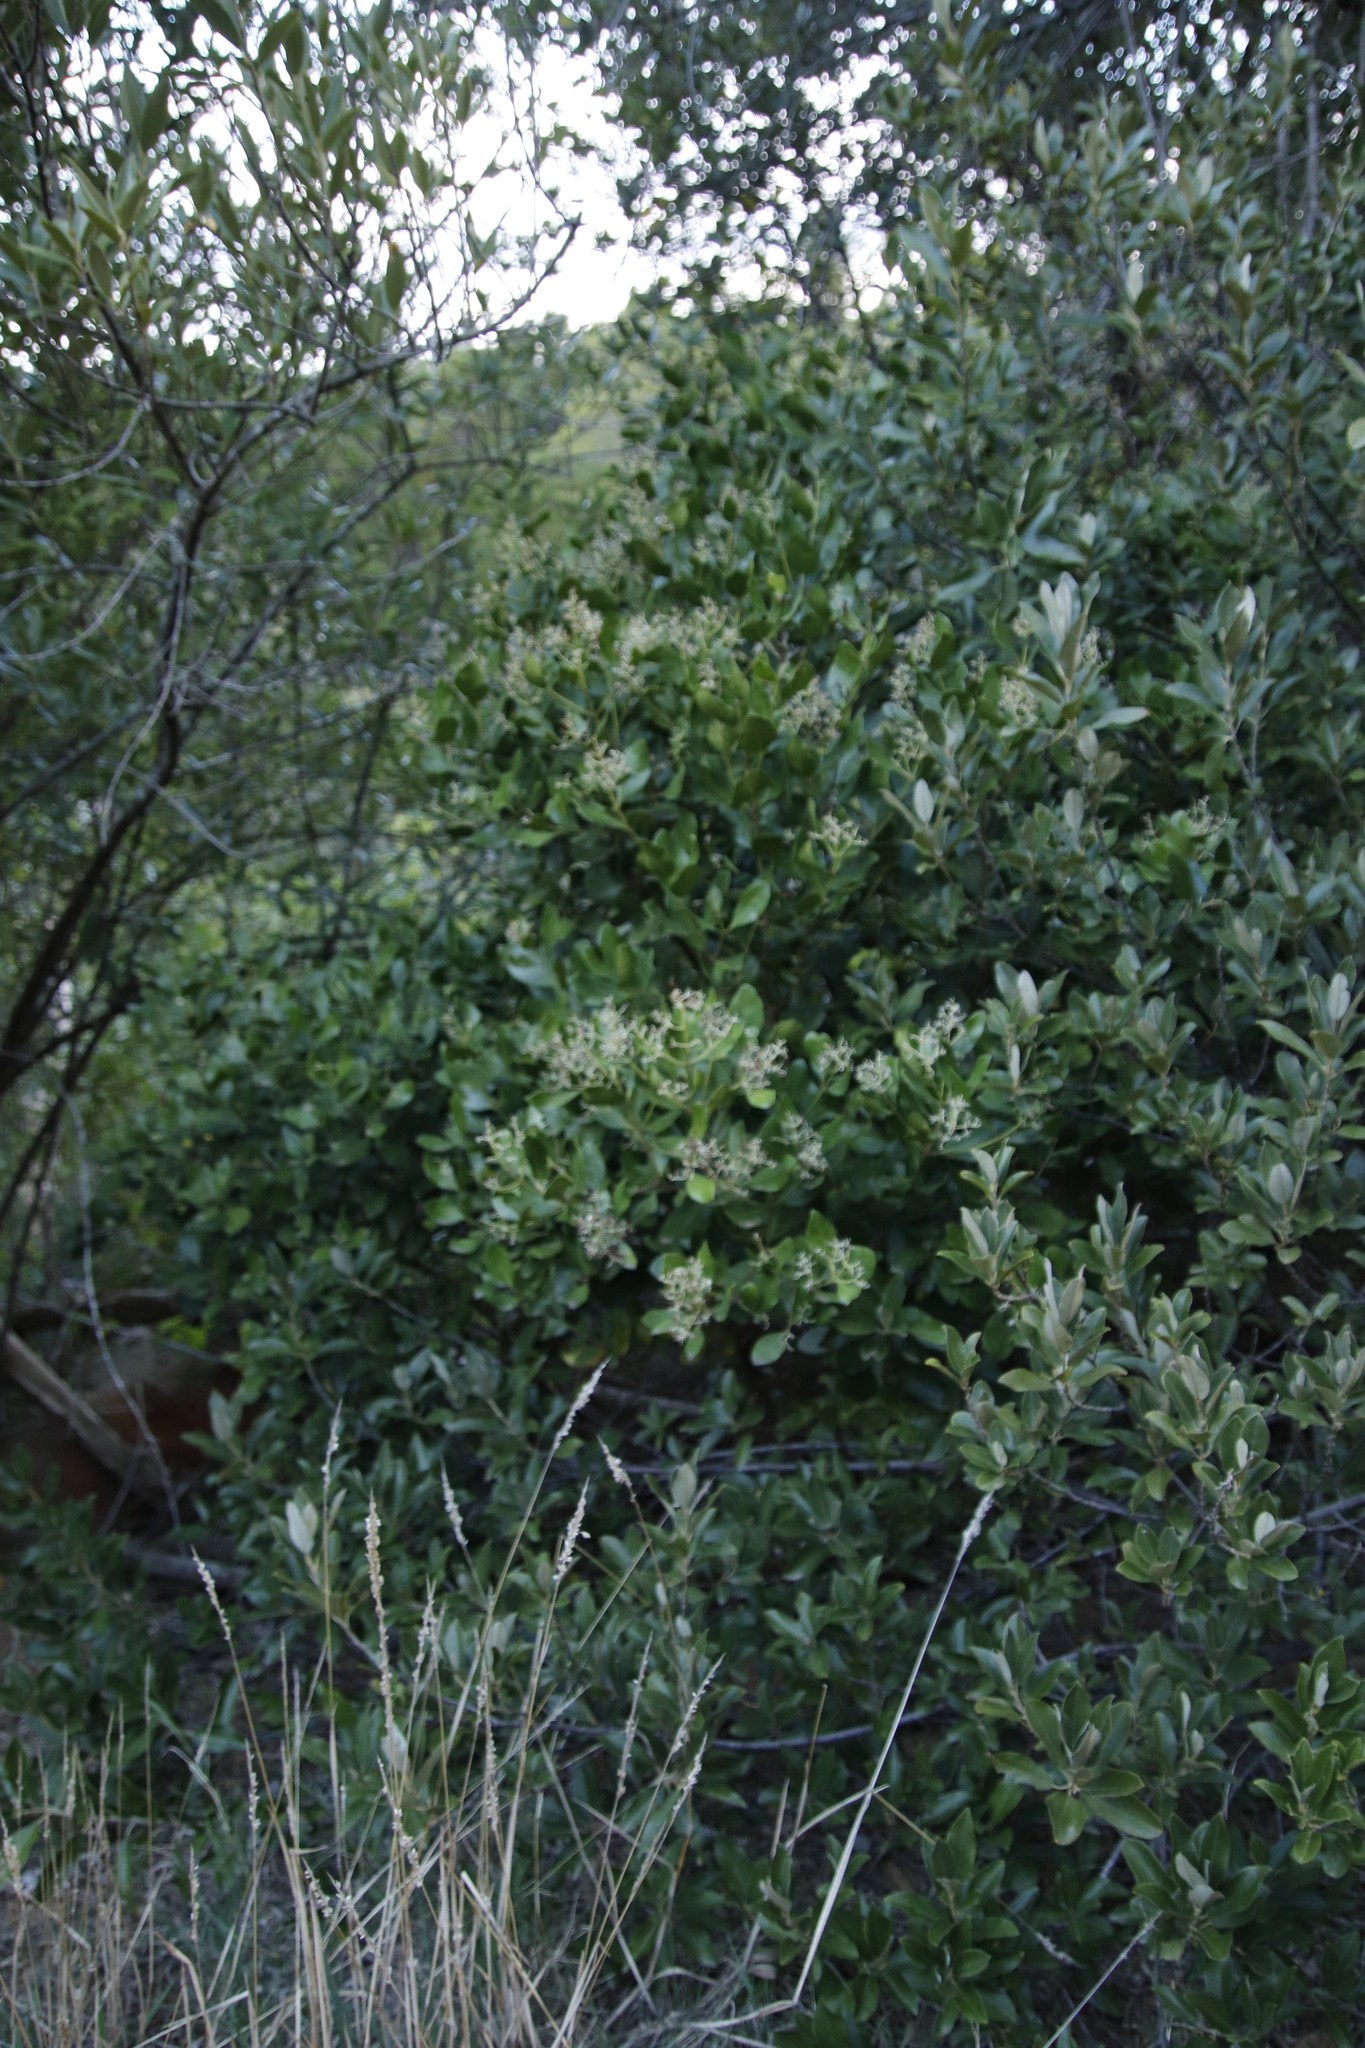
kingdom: Plantae
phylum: Tracheophyta
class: Magnoliopsida
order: Lamiales
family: Oleaceae
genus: Olea
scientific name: Olea capensis
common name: Black ironwood
